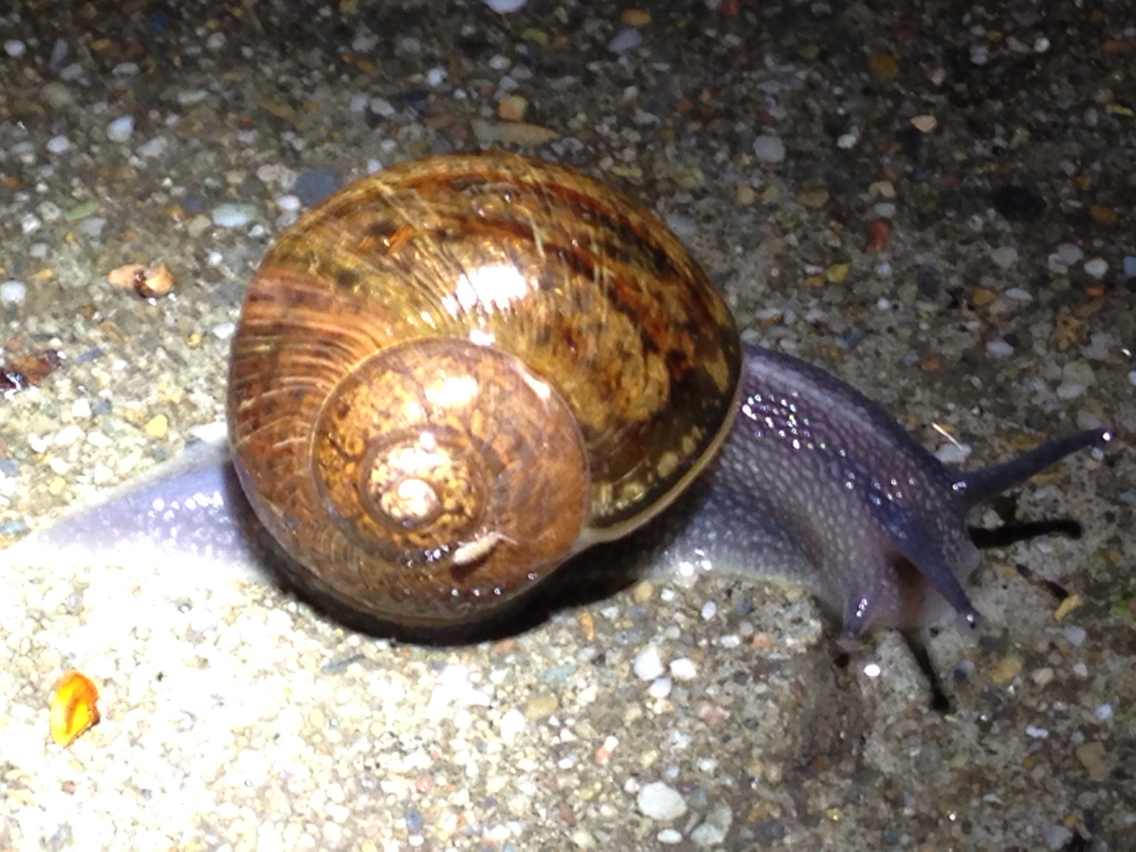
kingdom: Animalia
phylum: Mollusca
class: Gastropoda
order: Stylommatophora
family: Helicidae
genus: Cornu
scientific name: Cornu aspersum
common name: Brown garden snail
